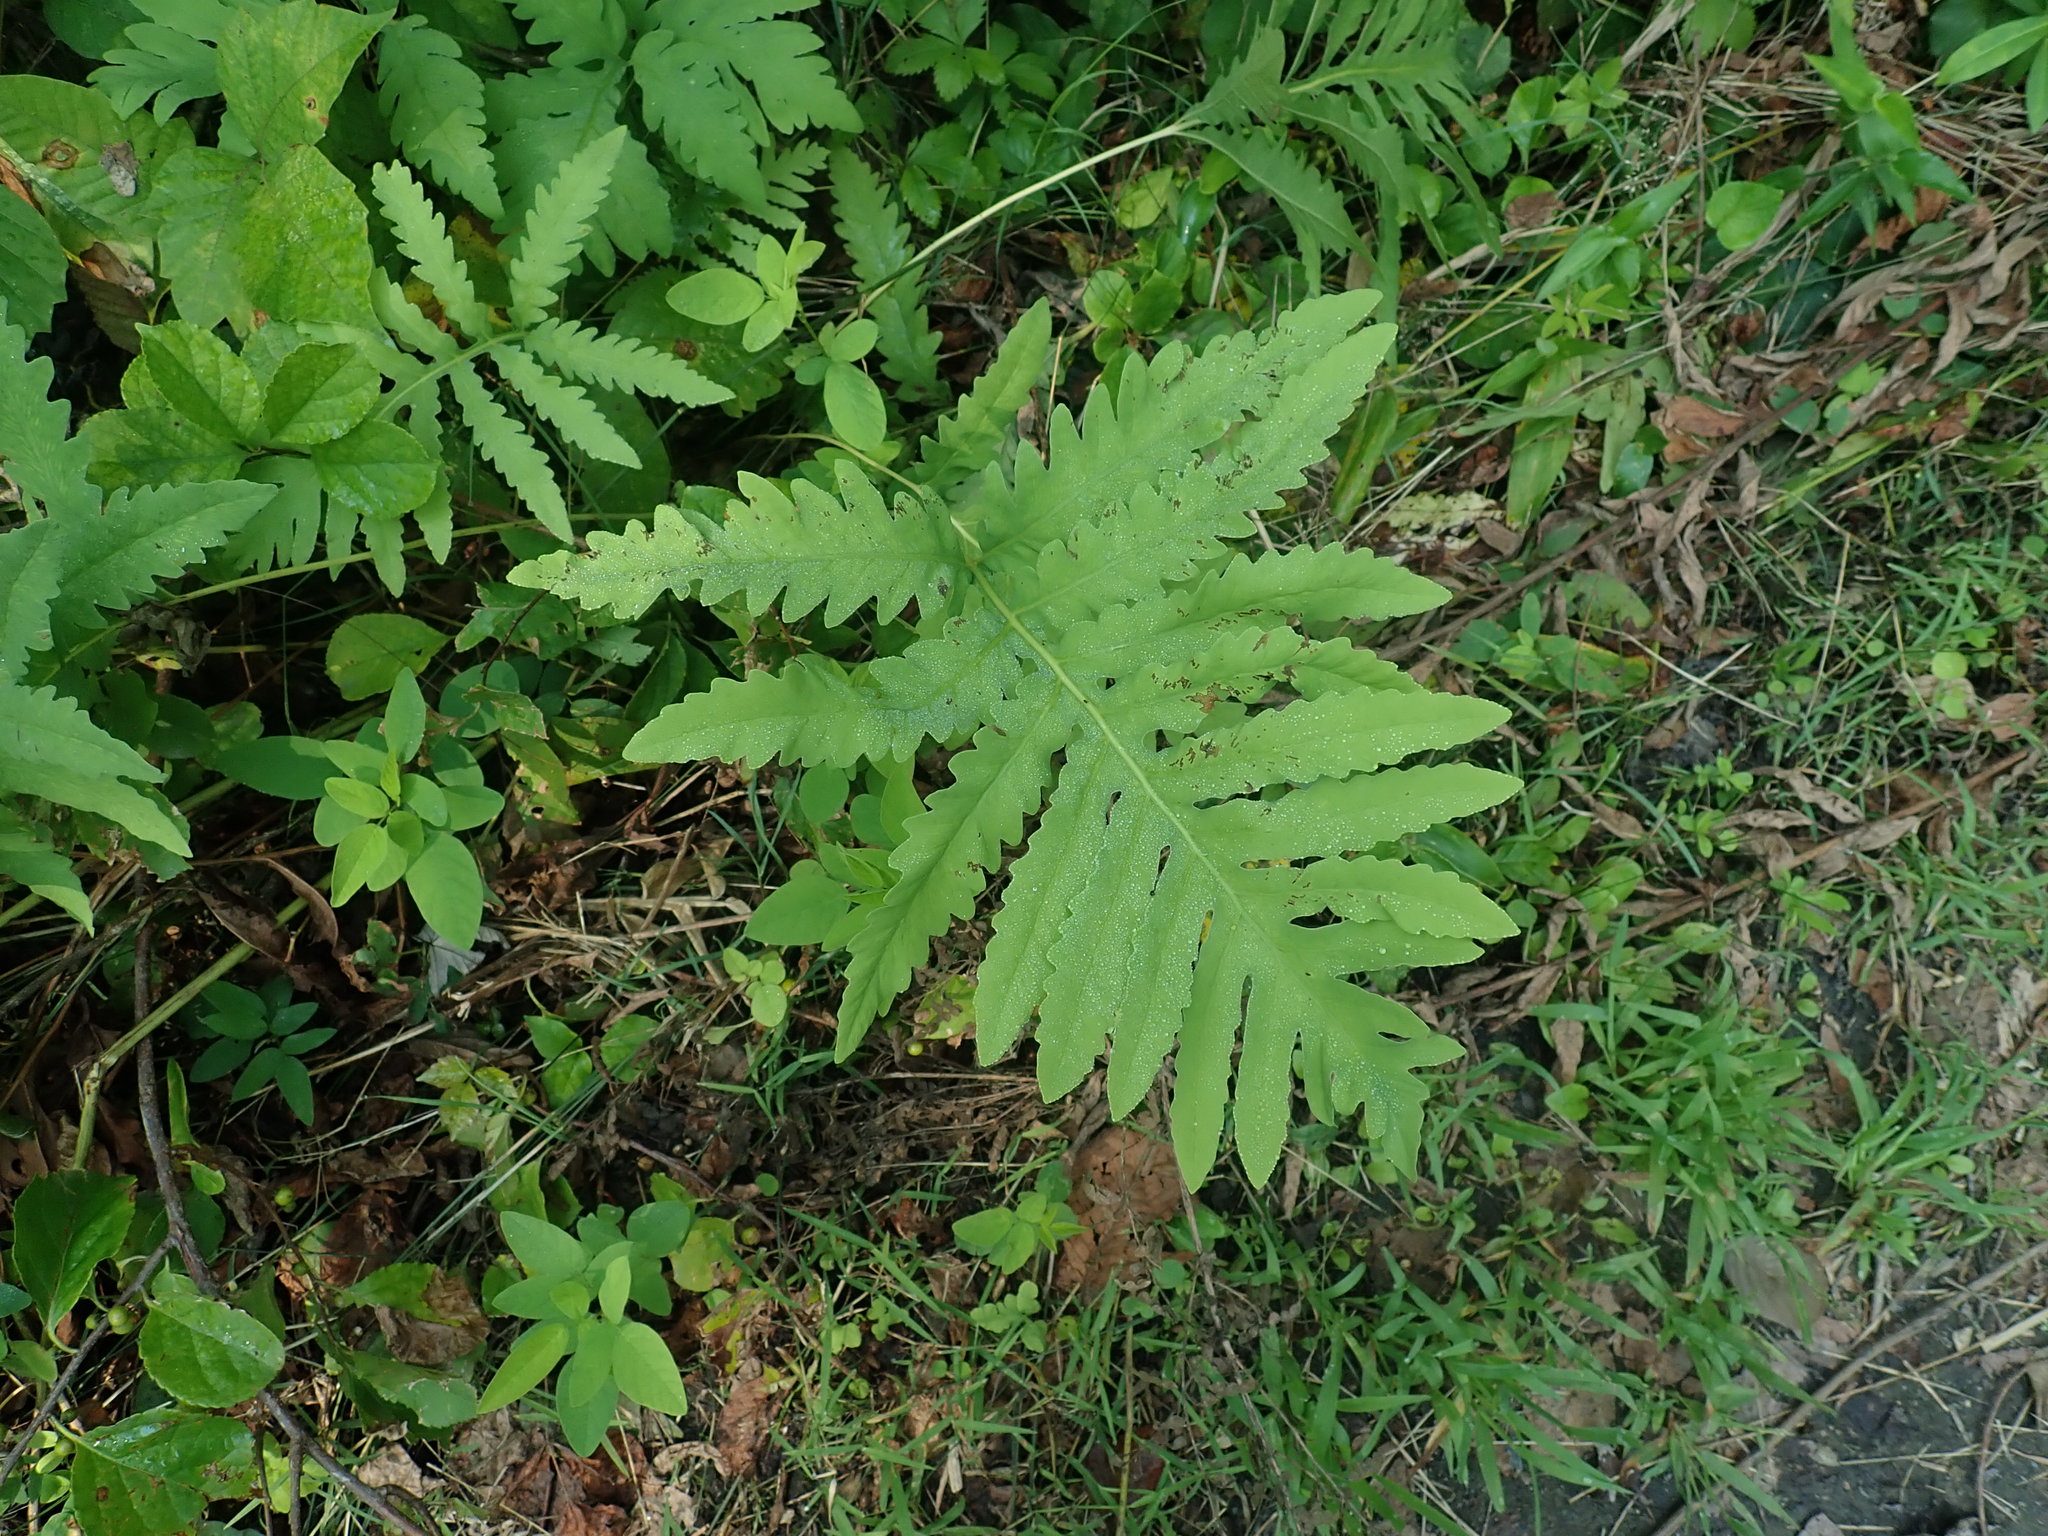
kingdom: Plantae
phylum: Tracheophyta
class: Polypodiopsida
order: Polypodiales
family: Onocleaceae
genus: Onoclea
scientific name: Onoclea sensibilis
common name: Sensitive fern
